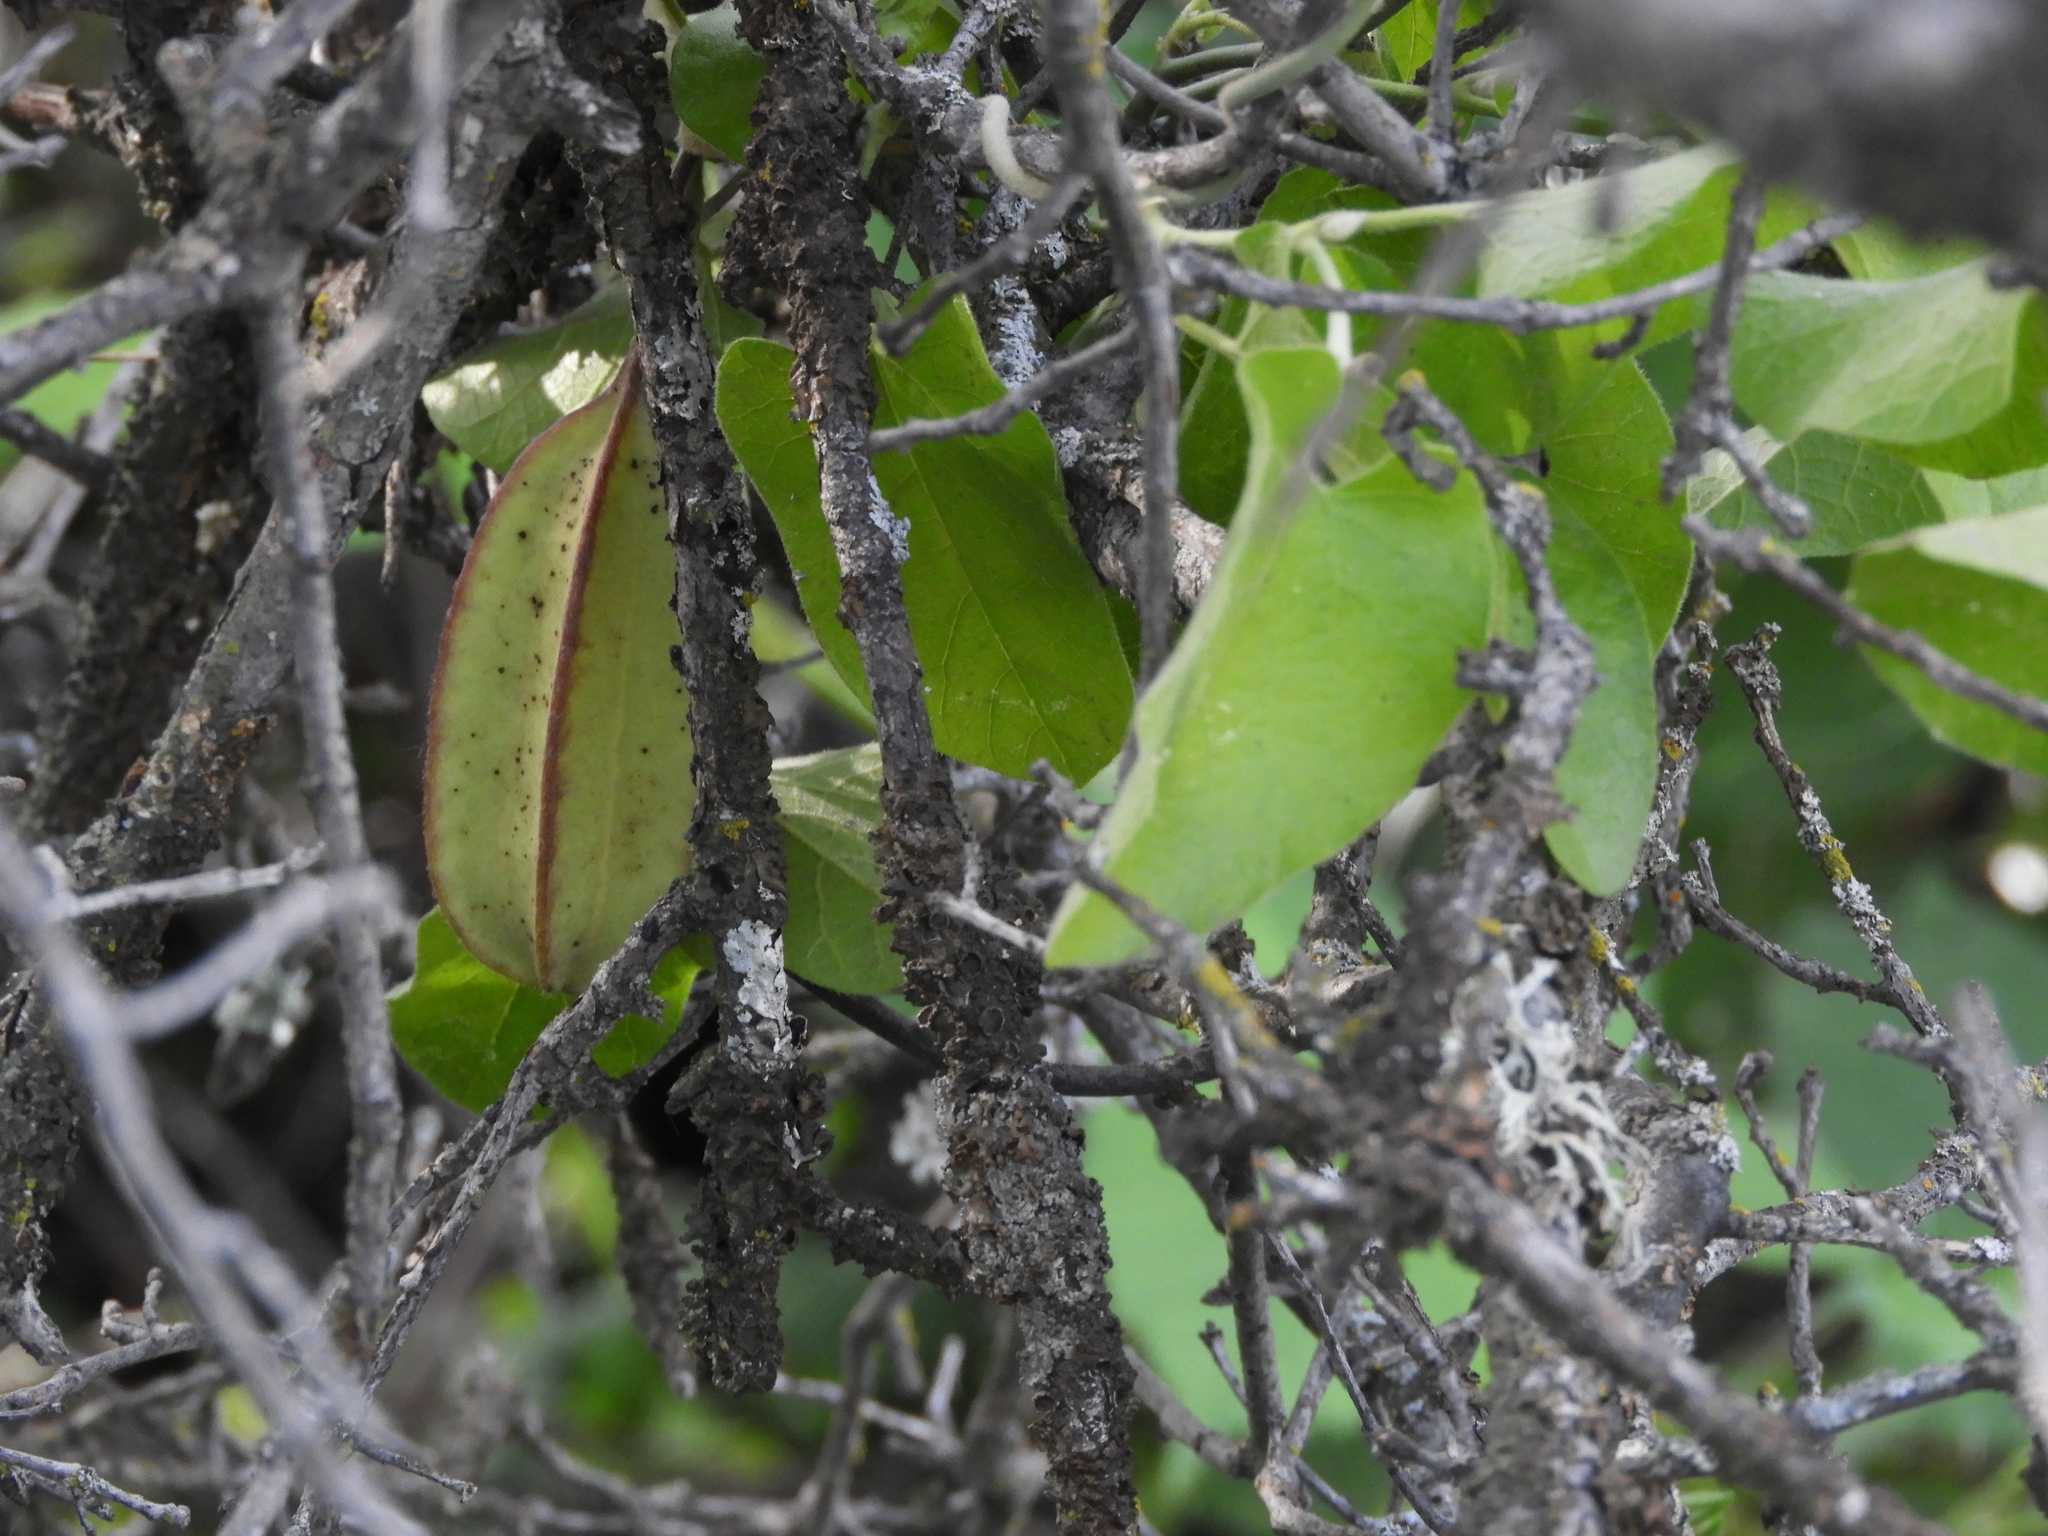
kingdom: Plantae
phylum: Tracheophyta
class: Magnoliopsida
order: Piperales
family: Aristolochiaceae
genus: Isotrema
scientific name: Isotrema californicum
